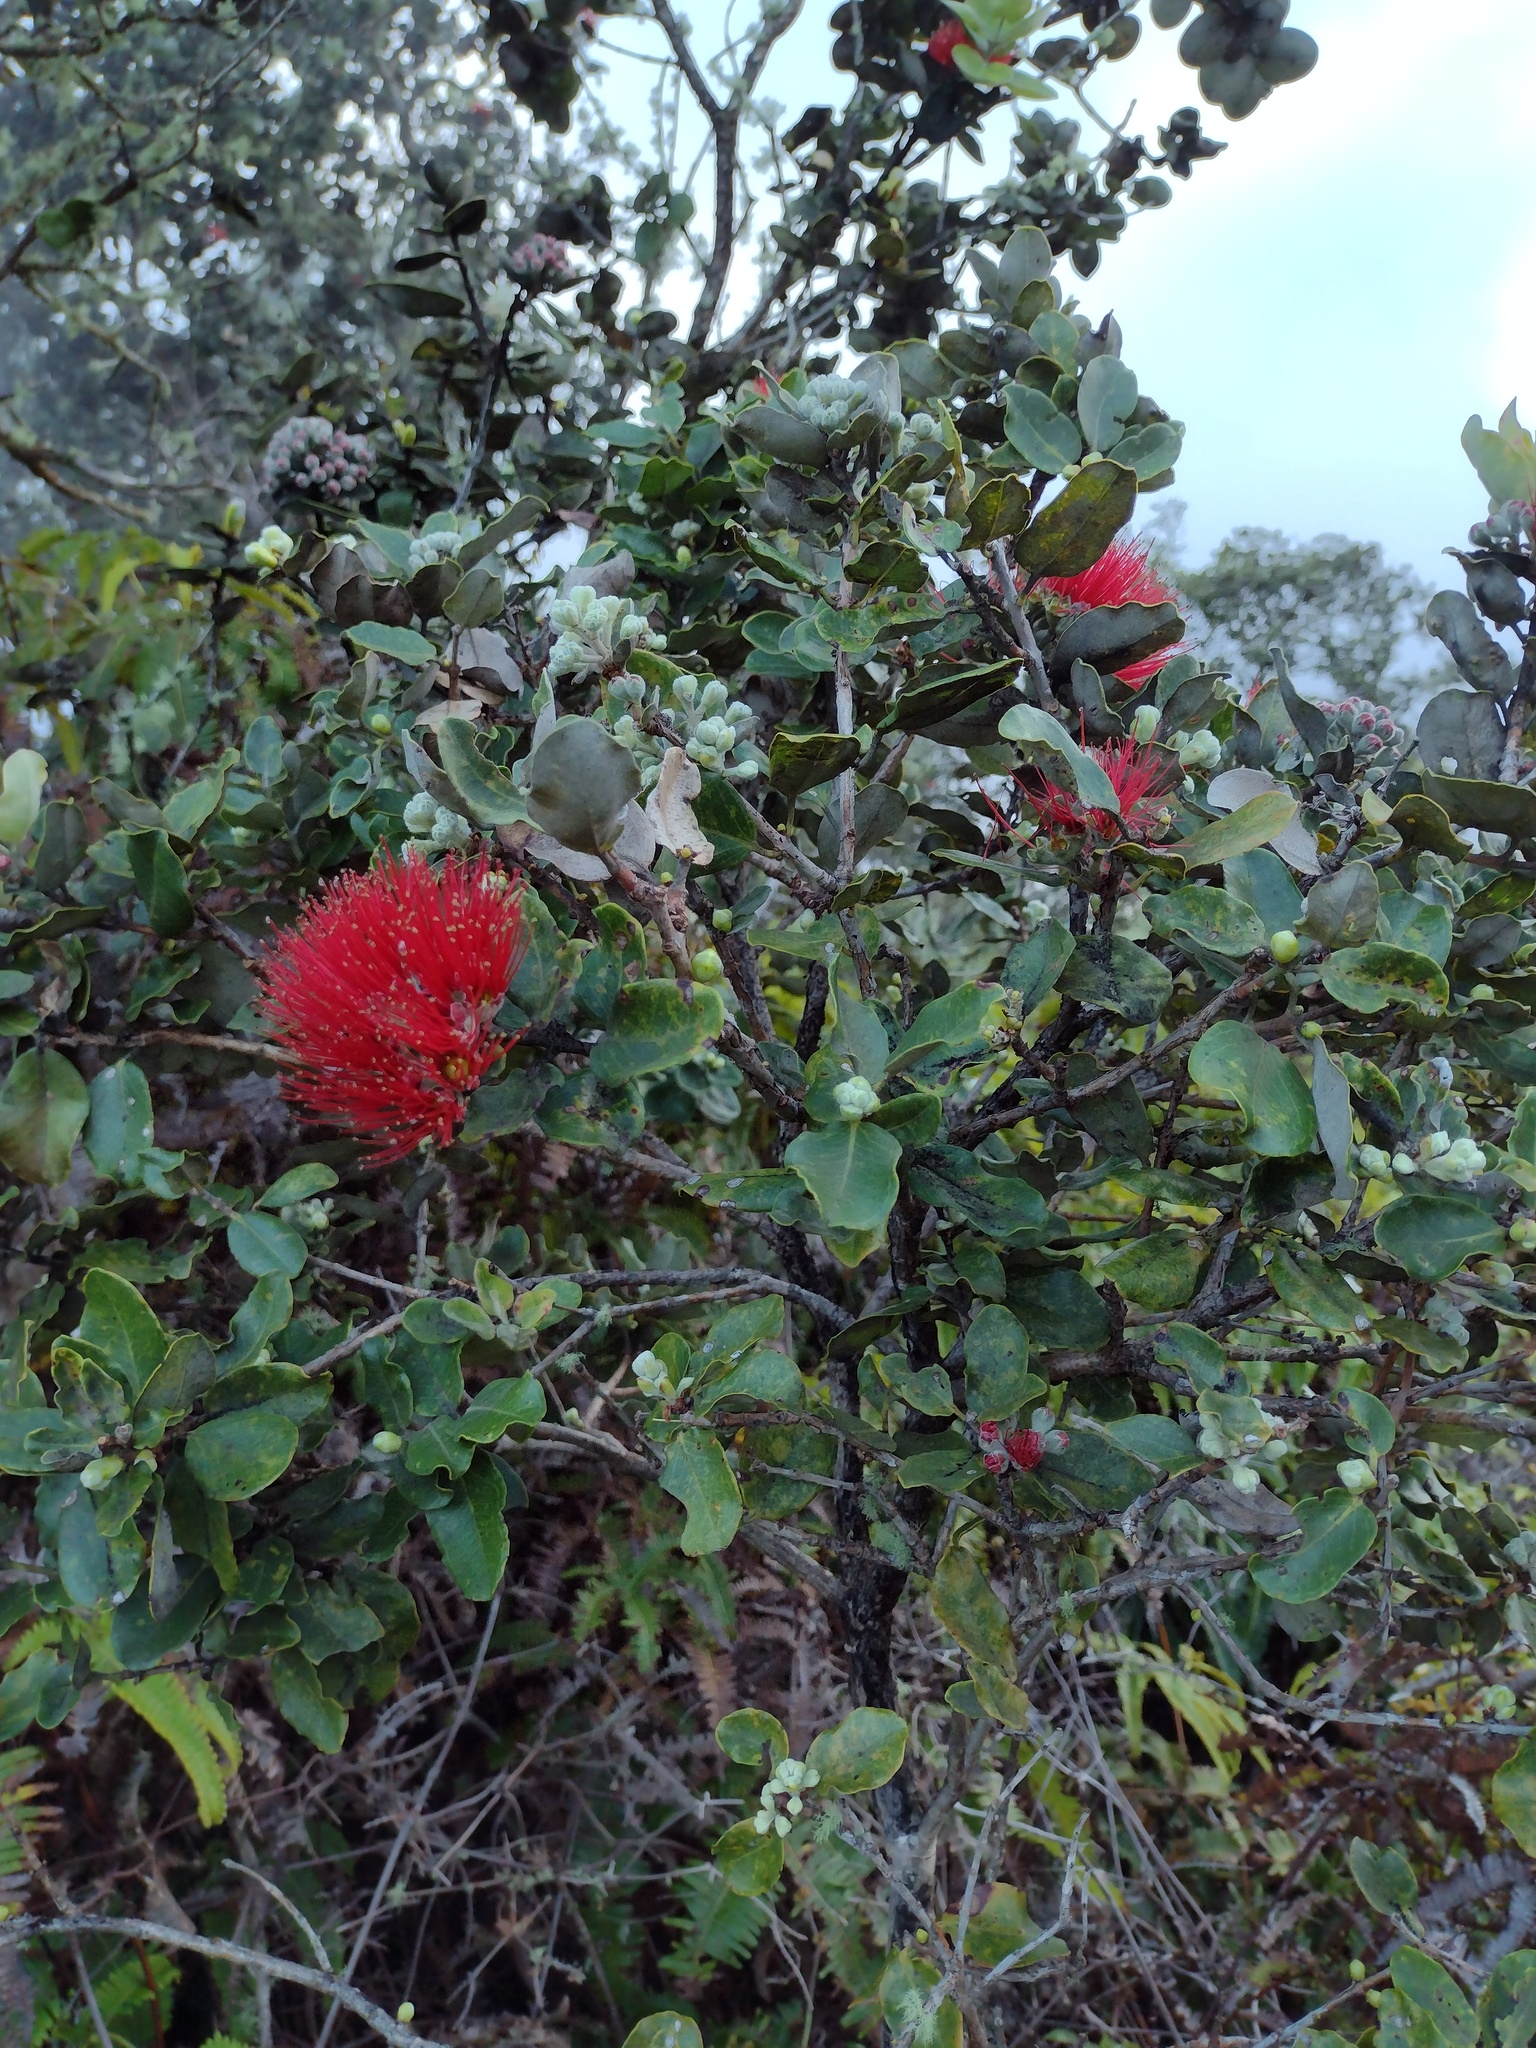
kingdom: Plantae
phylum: Tracheophyta
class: Magnoliopsida
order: Myrtales
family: Myrtaceae
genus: Metrosideros
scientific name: Metrosideros polymorpha
